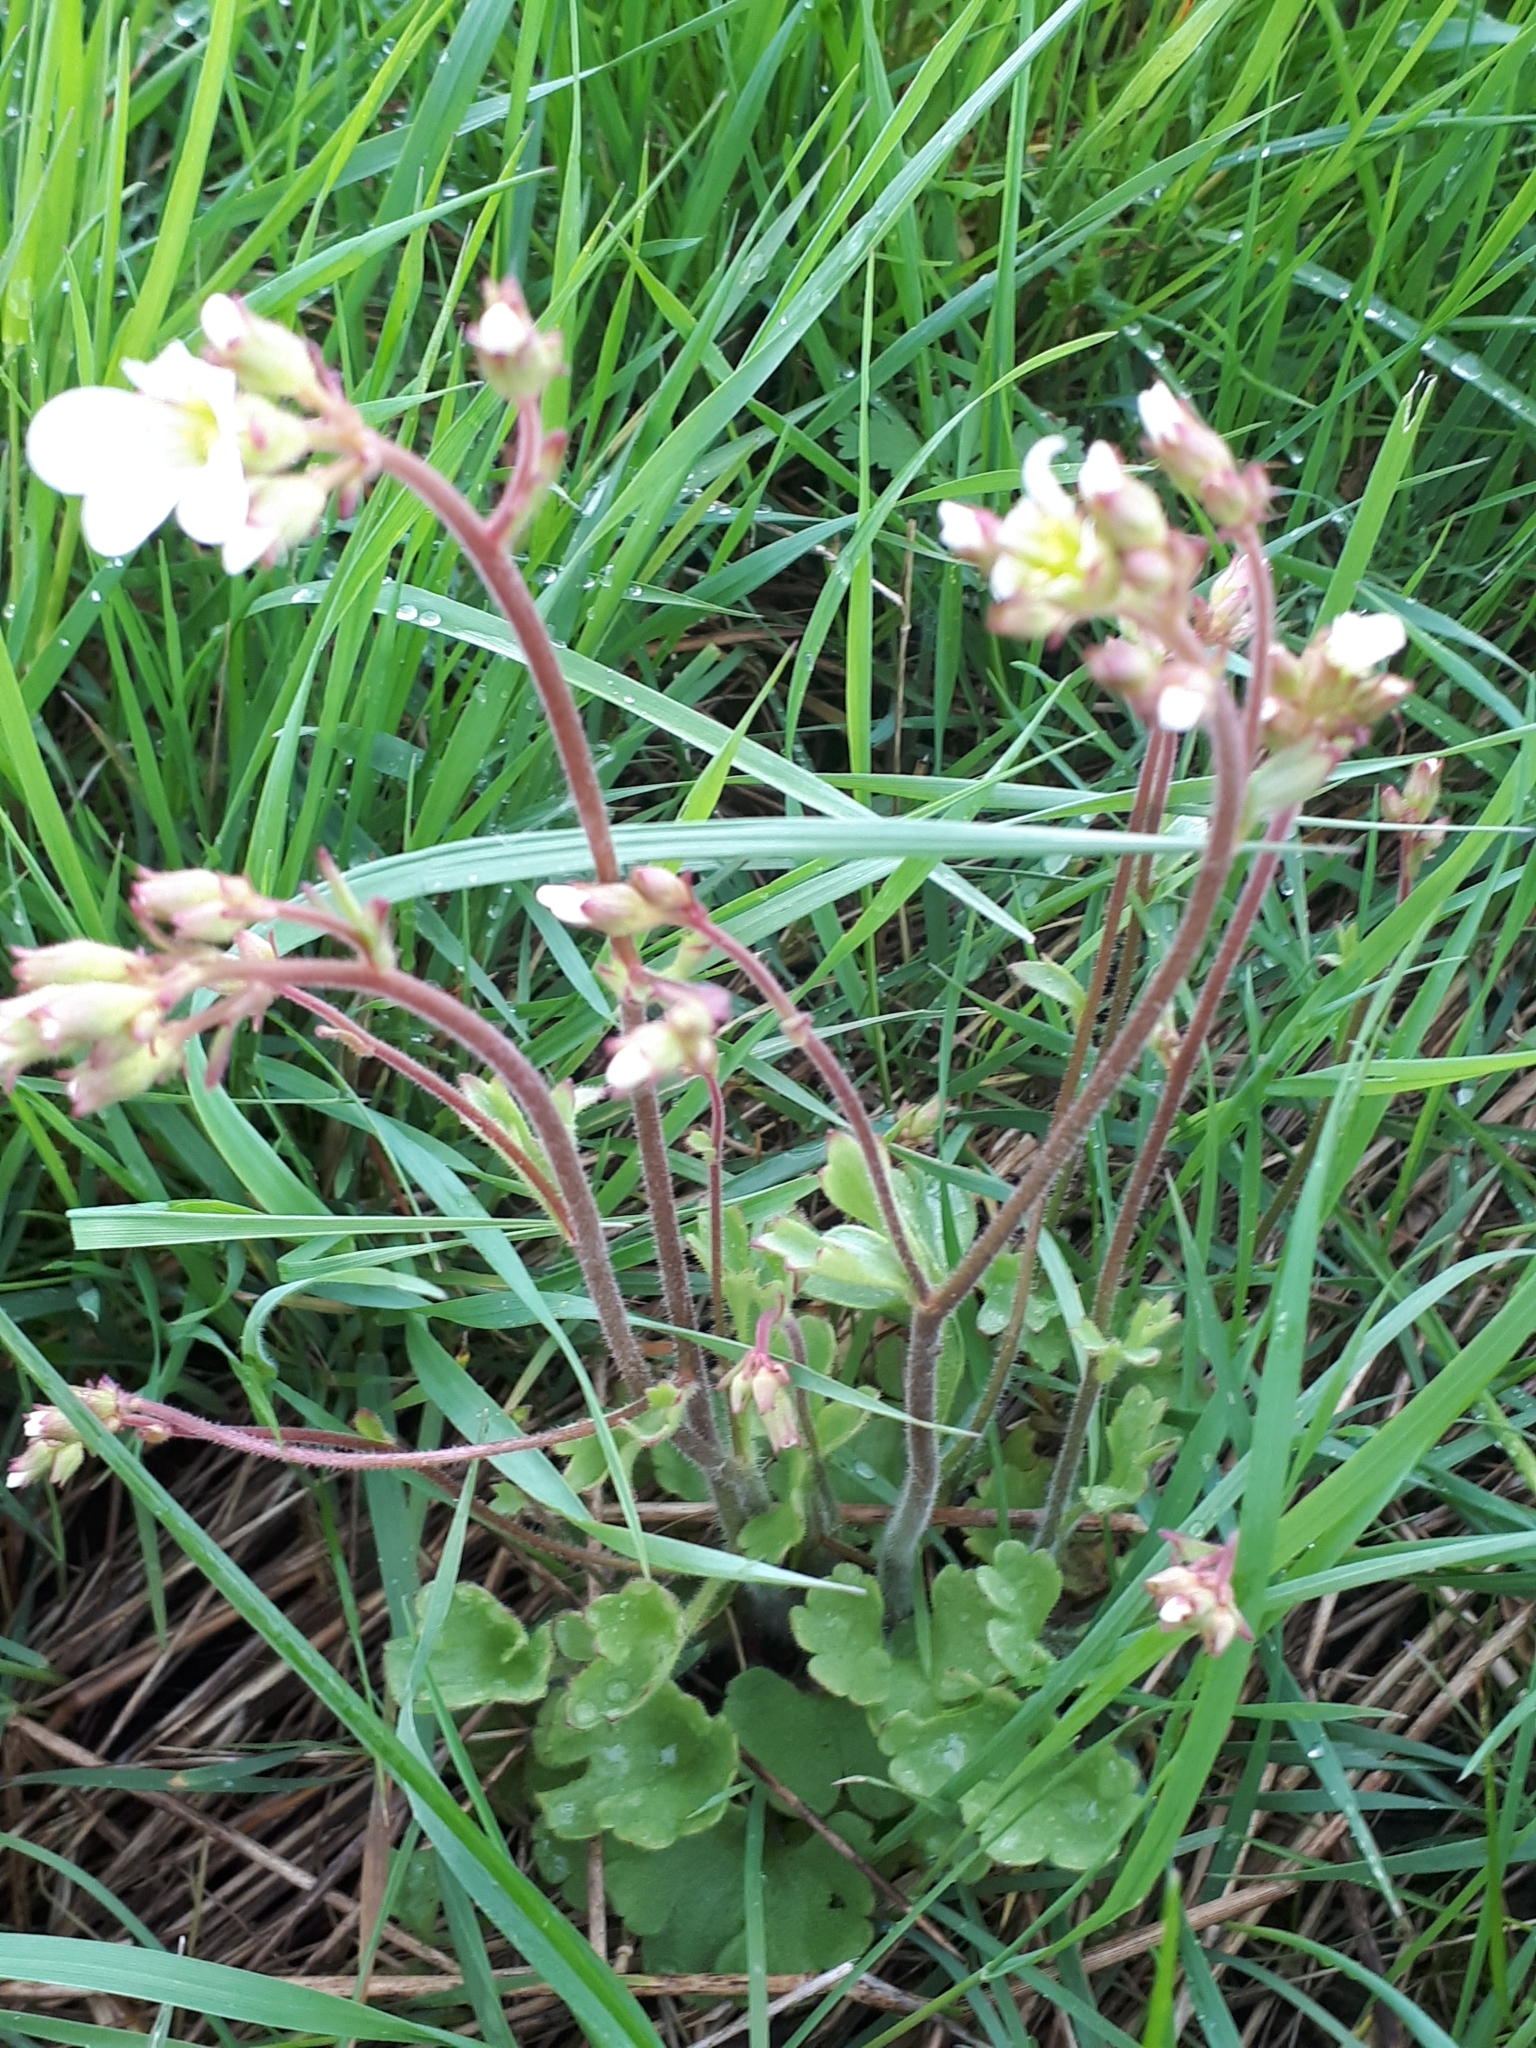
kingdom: Plantae
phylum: Tracheophyta
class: Magnoliopsida
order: Saxifragales
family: Saxifragaceae
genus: Saxifraga
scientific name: Saxifraga granulata
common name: Meadow saxifrage
